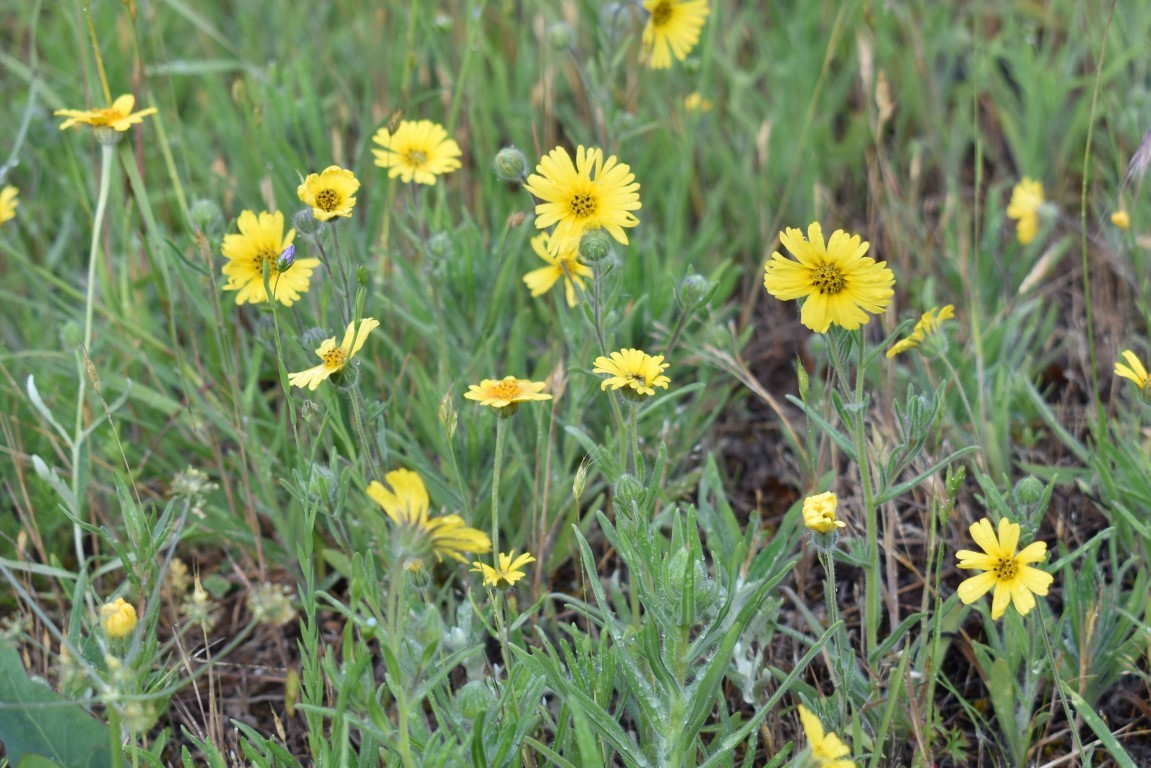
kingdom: Plantae
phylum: Tracheophyta
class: Magnoliopsida
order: Asterales
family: Asteraceae
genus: Madia
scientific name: Madia elegans
